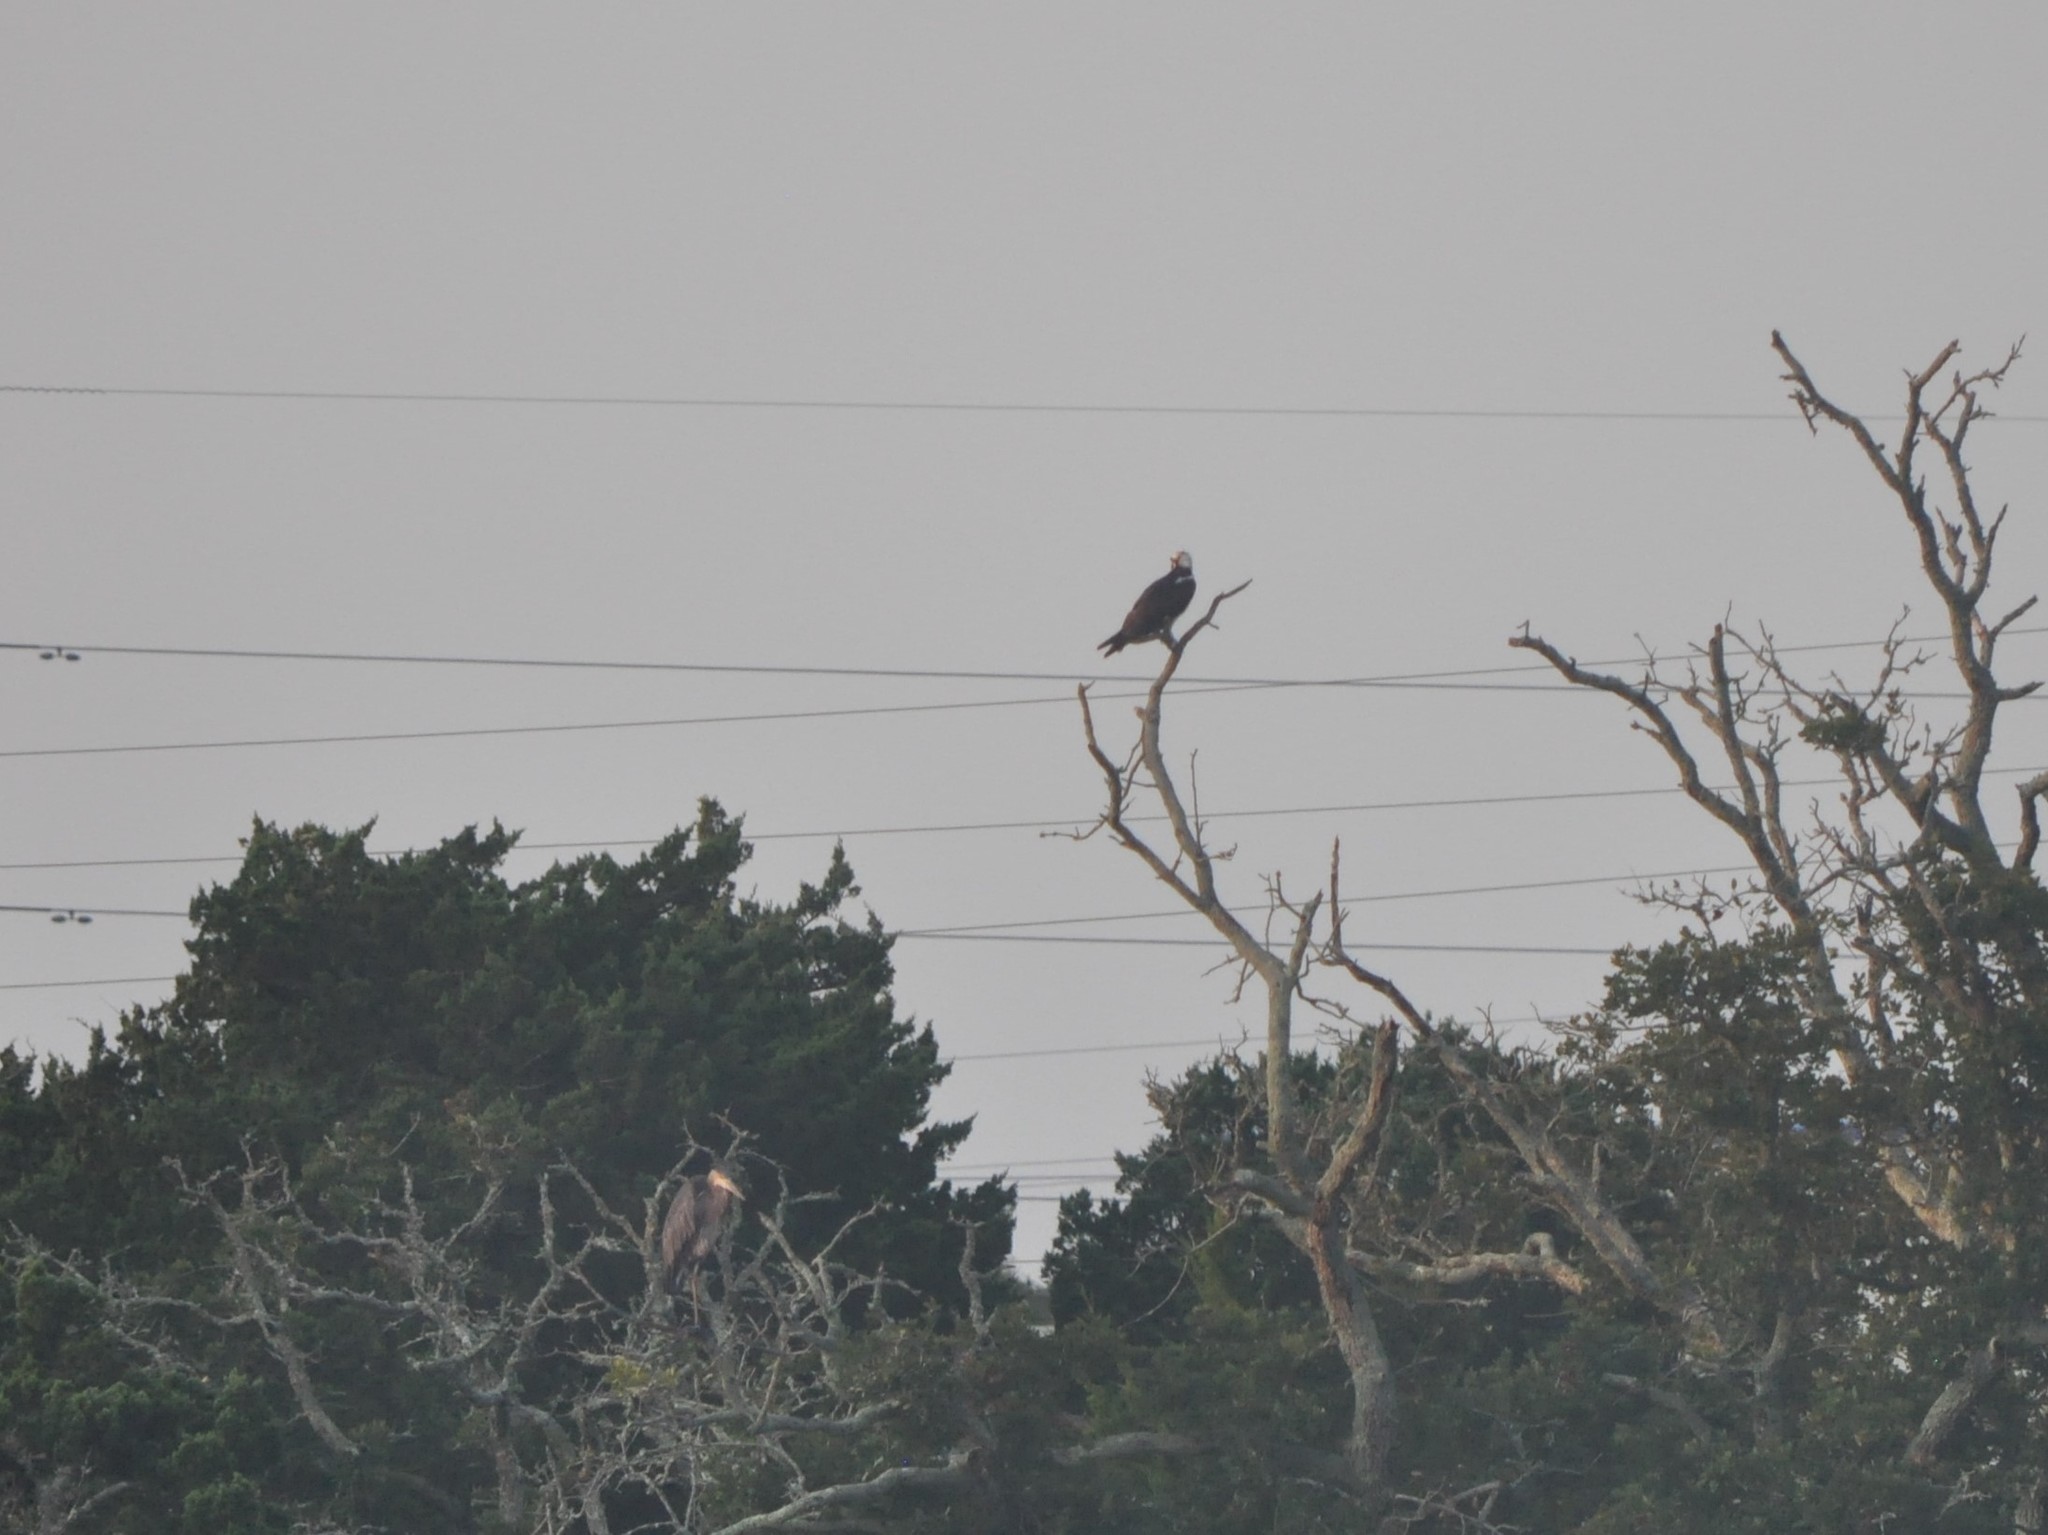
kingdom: Animalia
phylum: Chordata
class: Aves
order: Accipitriformes
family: Pandionidae
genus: Pandion
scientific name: Pandion haliaetus
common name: Osprey
